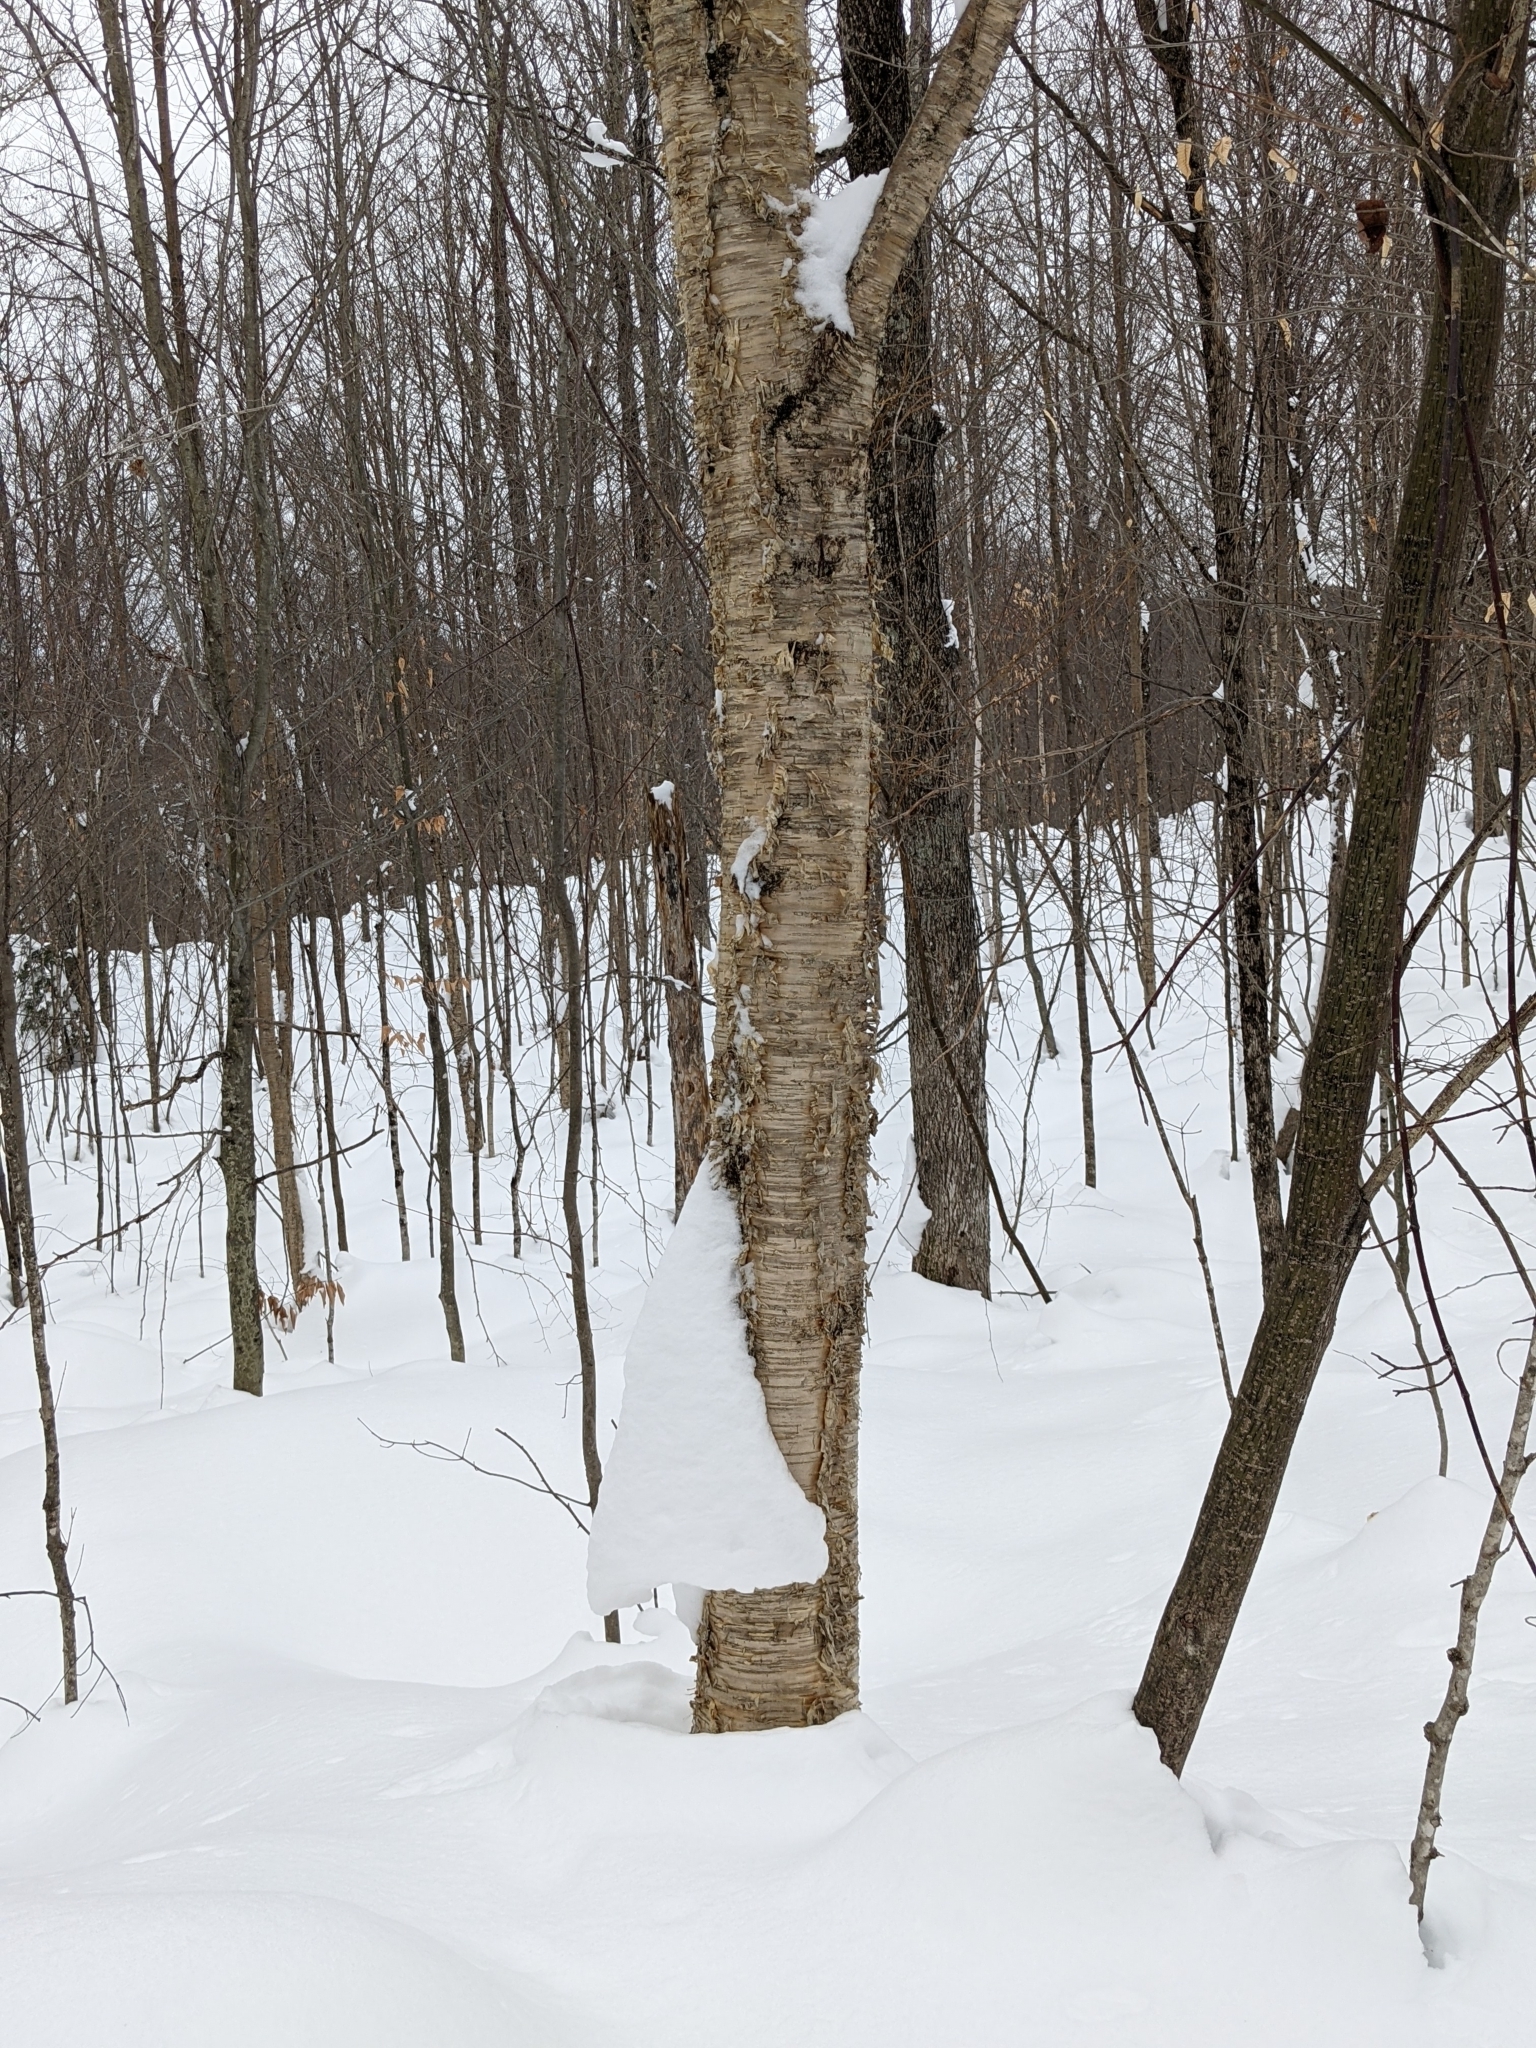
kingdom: Plantae
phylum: Tracheophyta
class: Magnoliopsida
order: Fagales
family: Betulaceae
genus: Betula
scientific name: Betula alleghaniensis
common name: Yellow birch
